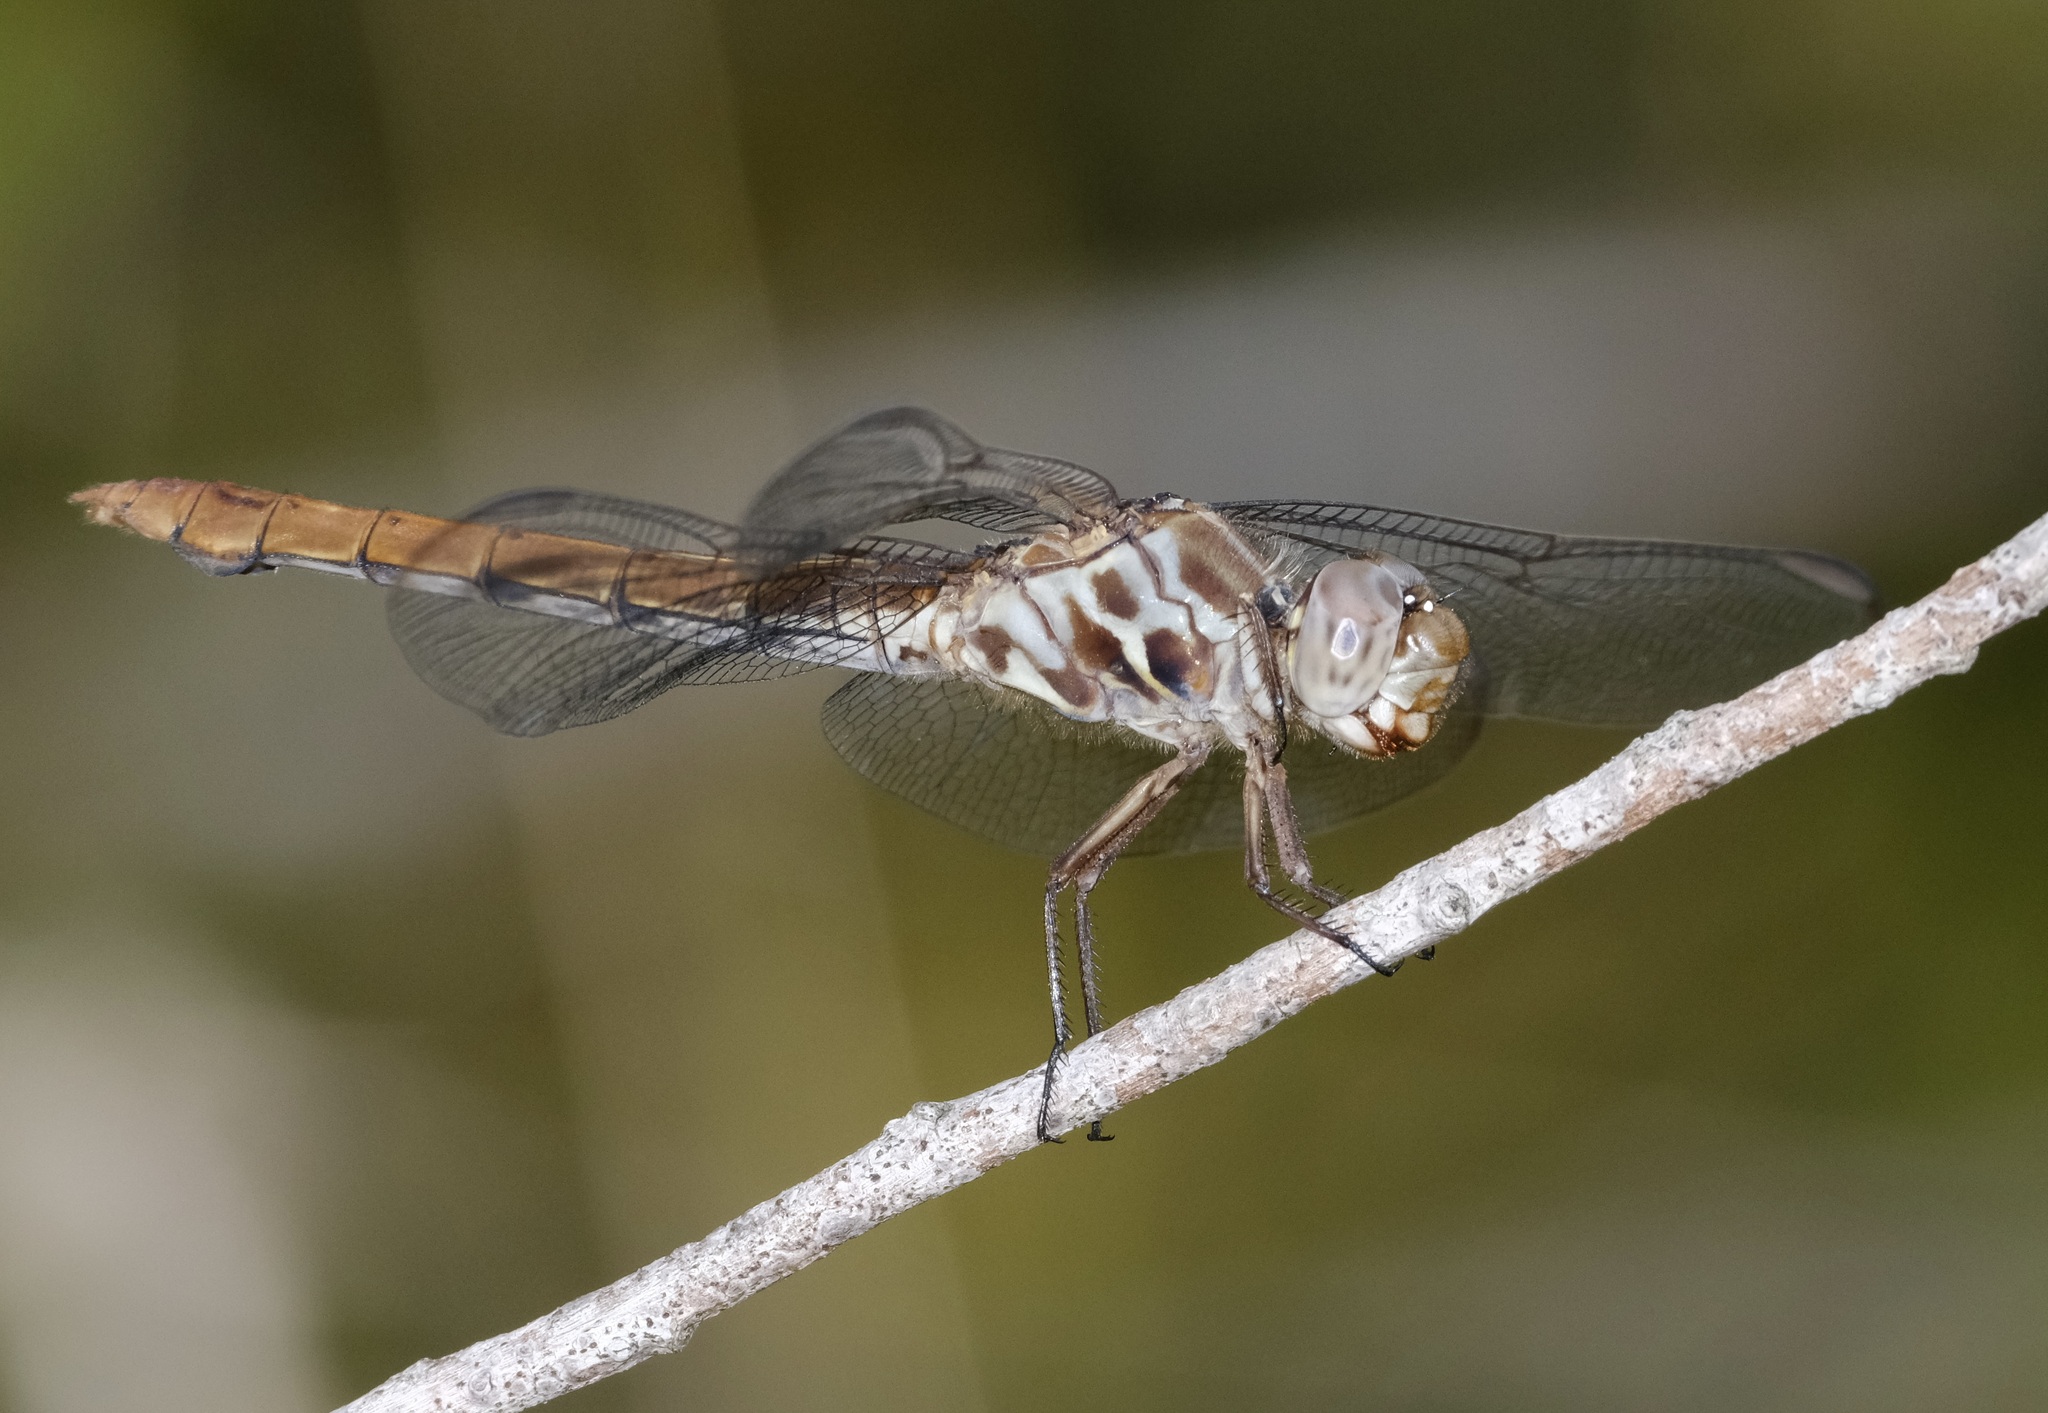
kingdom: Animalia
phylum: Arthropoda
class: Insecta
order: Odonata
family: Libellulidae
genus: Orthemis
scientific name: Orthemis ferruginea
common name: Roseate skimmer
